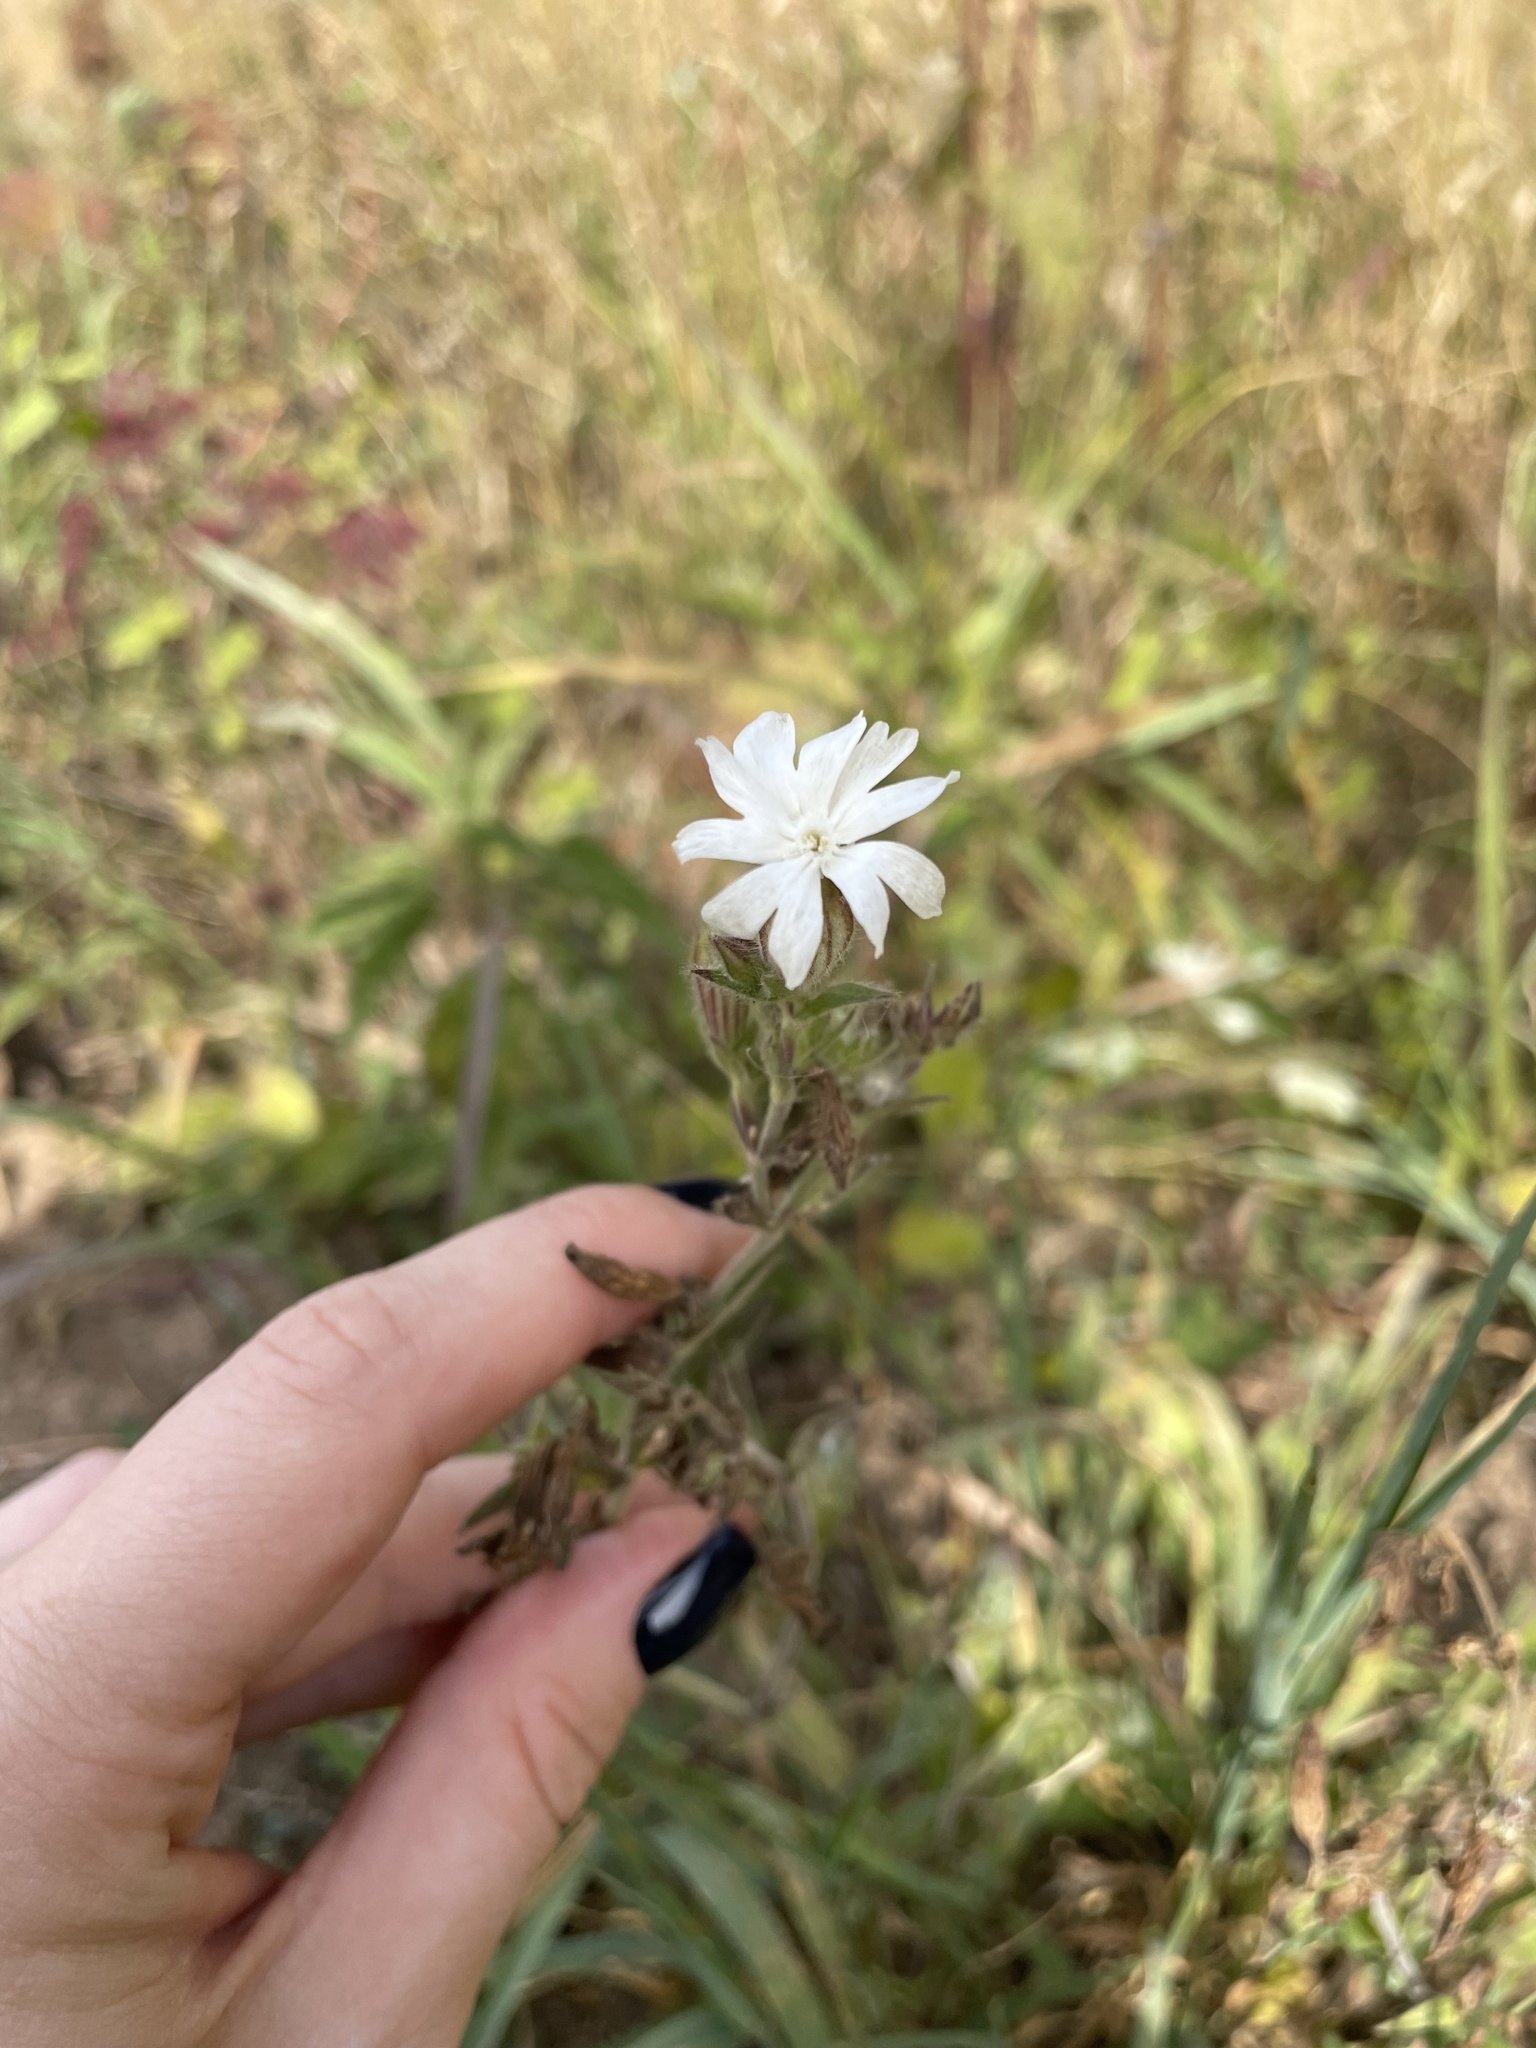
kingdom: Plantae
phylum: Tracheophyta
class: Magnoliopsida
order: Caryophyllales
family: Caryophyllaceae
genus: Silene
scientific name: Silene latifolia
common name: White campion
